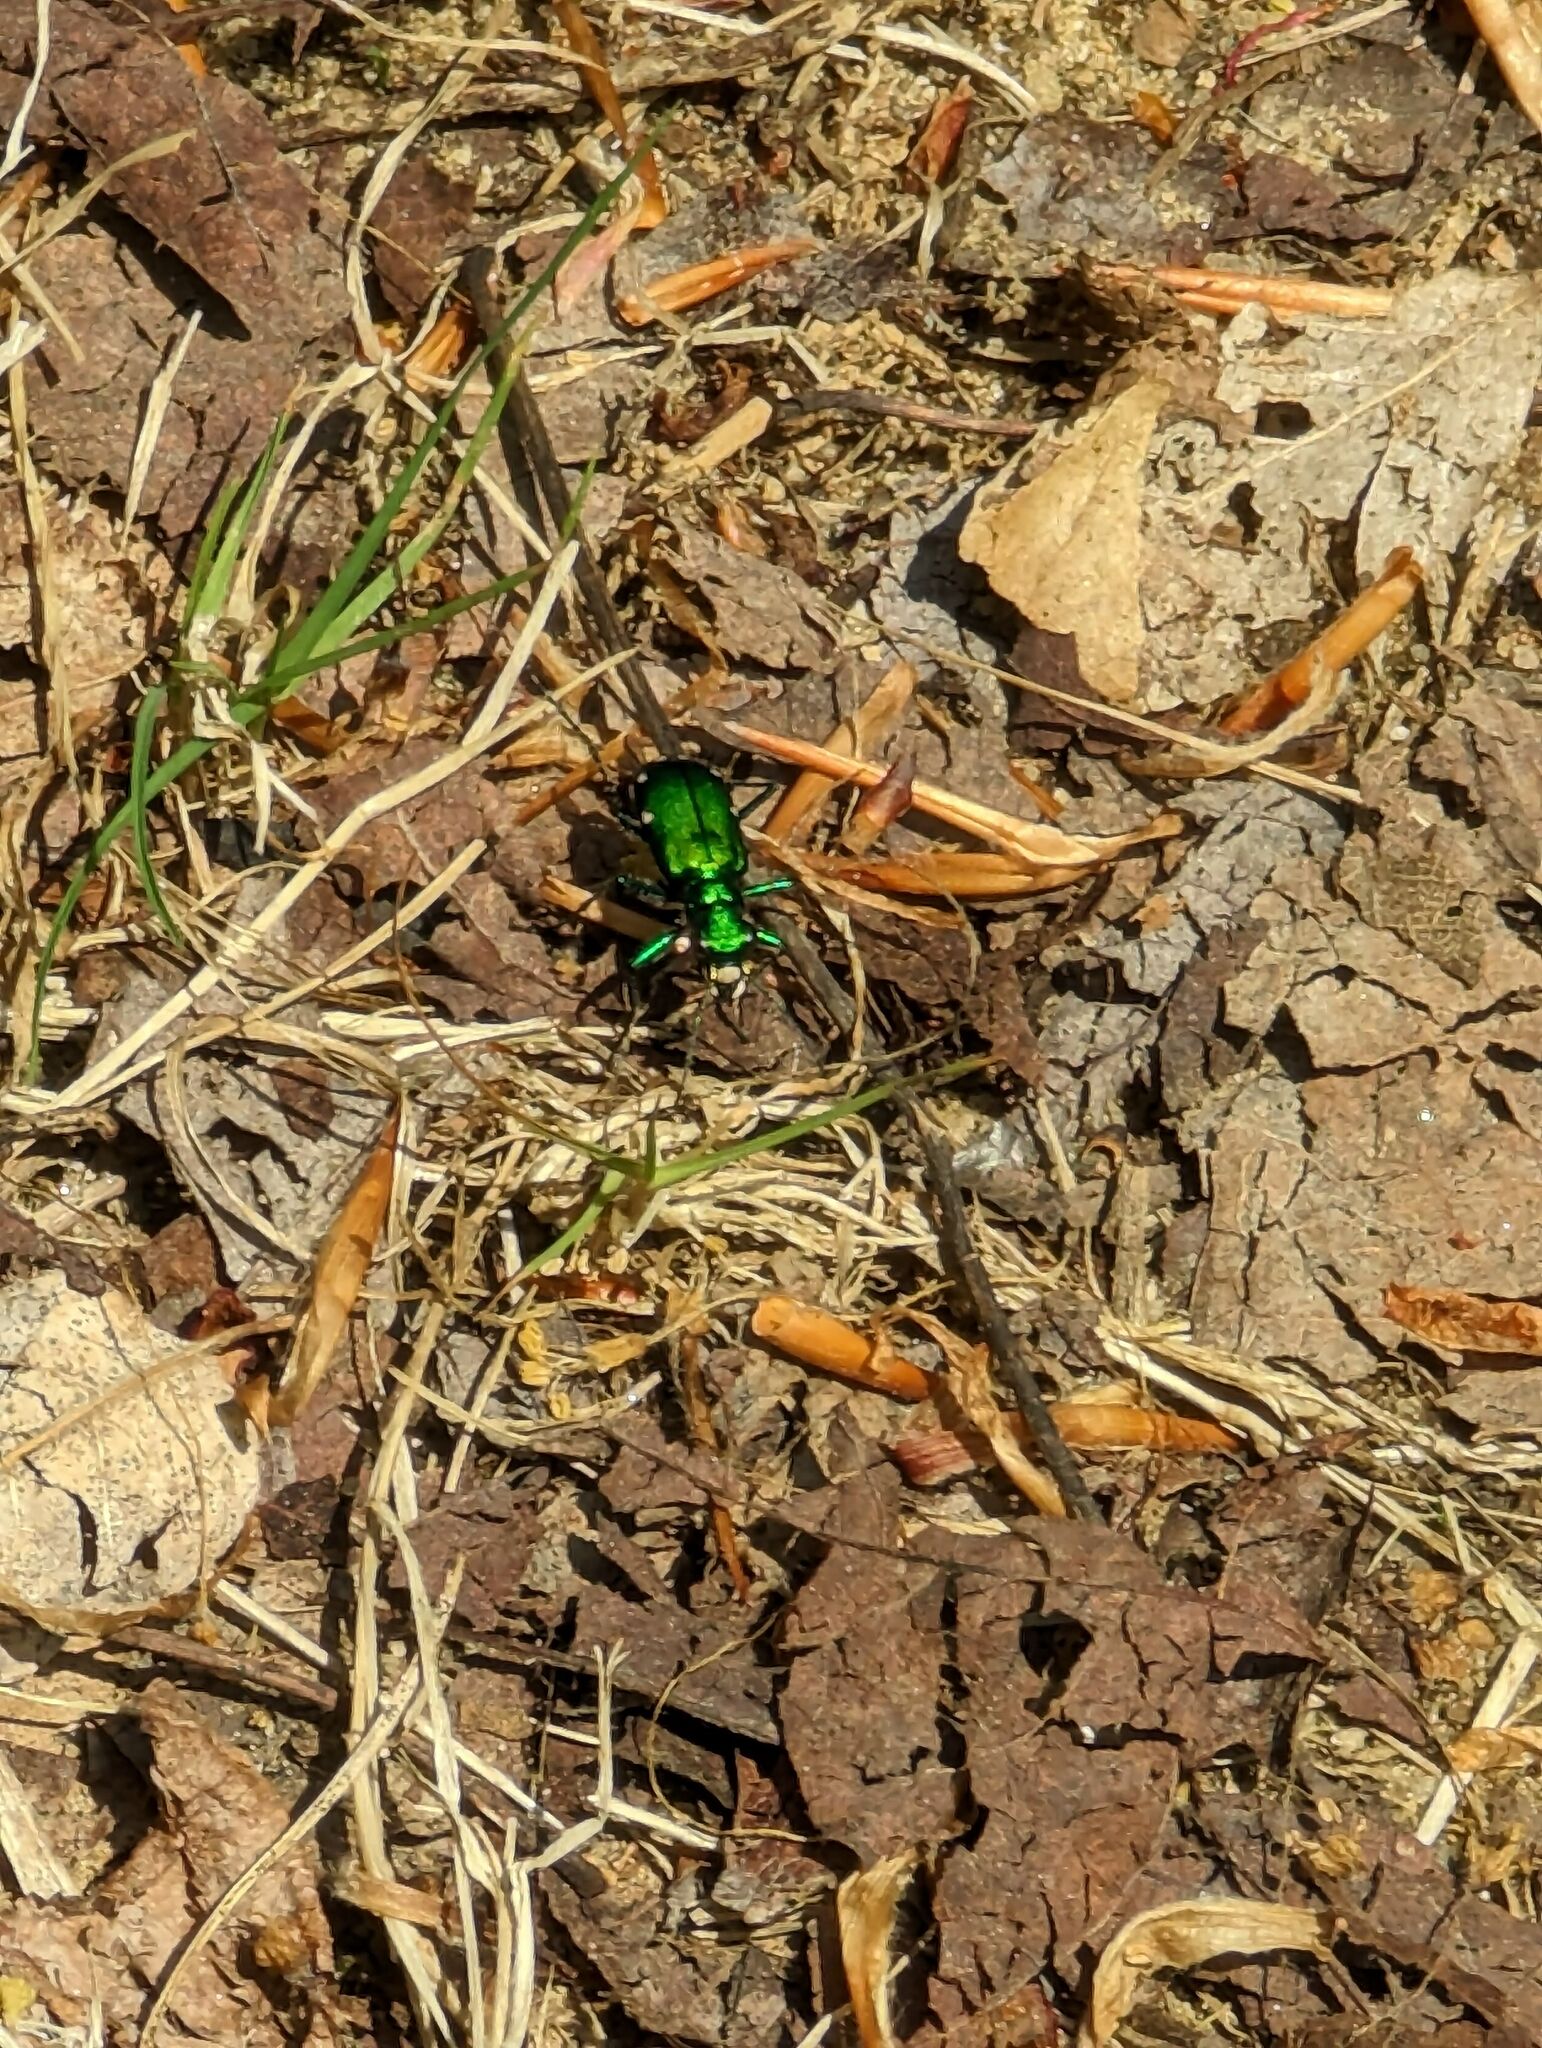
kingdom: Animalia
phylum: Arthropoda
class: Insecta
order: Coleoptera
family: Carabidae
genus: Cicindela
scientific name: Cicindela sexguttata
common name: Six-spotted tiger beetle
